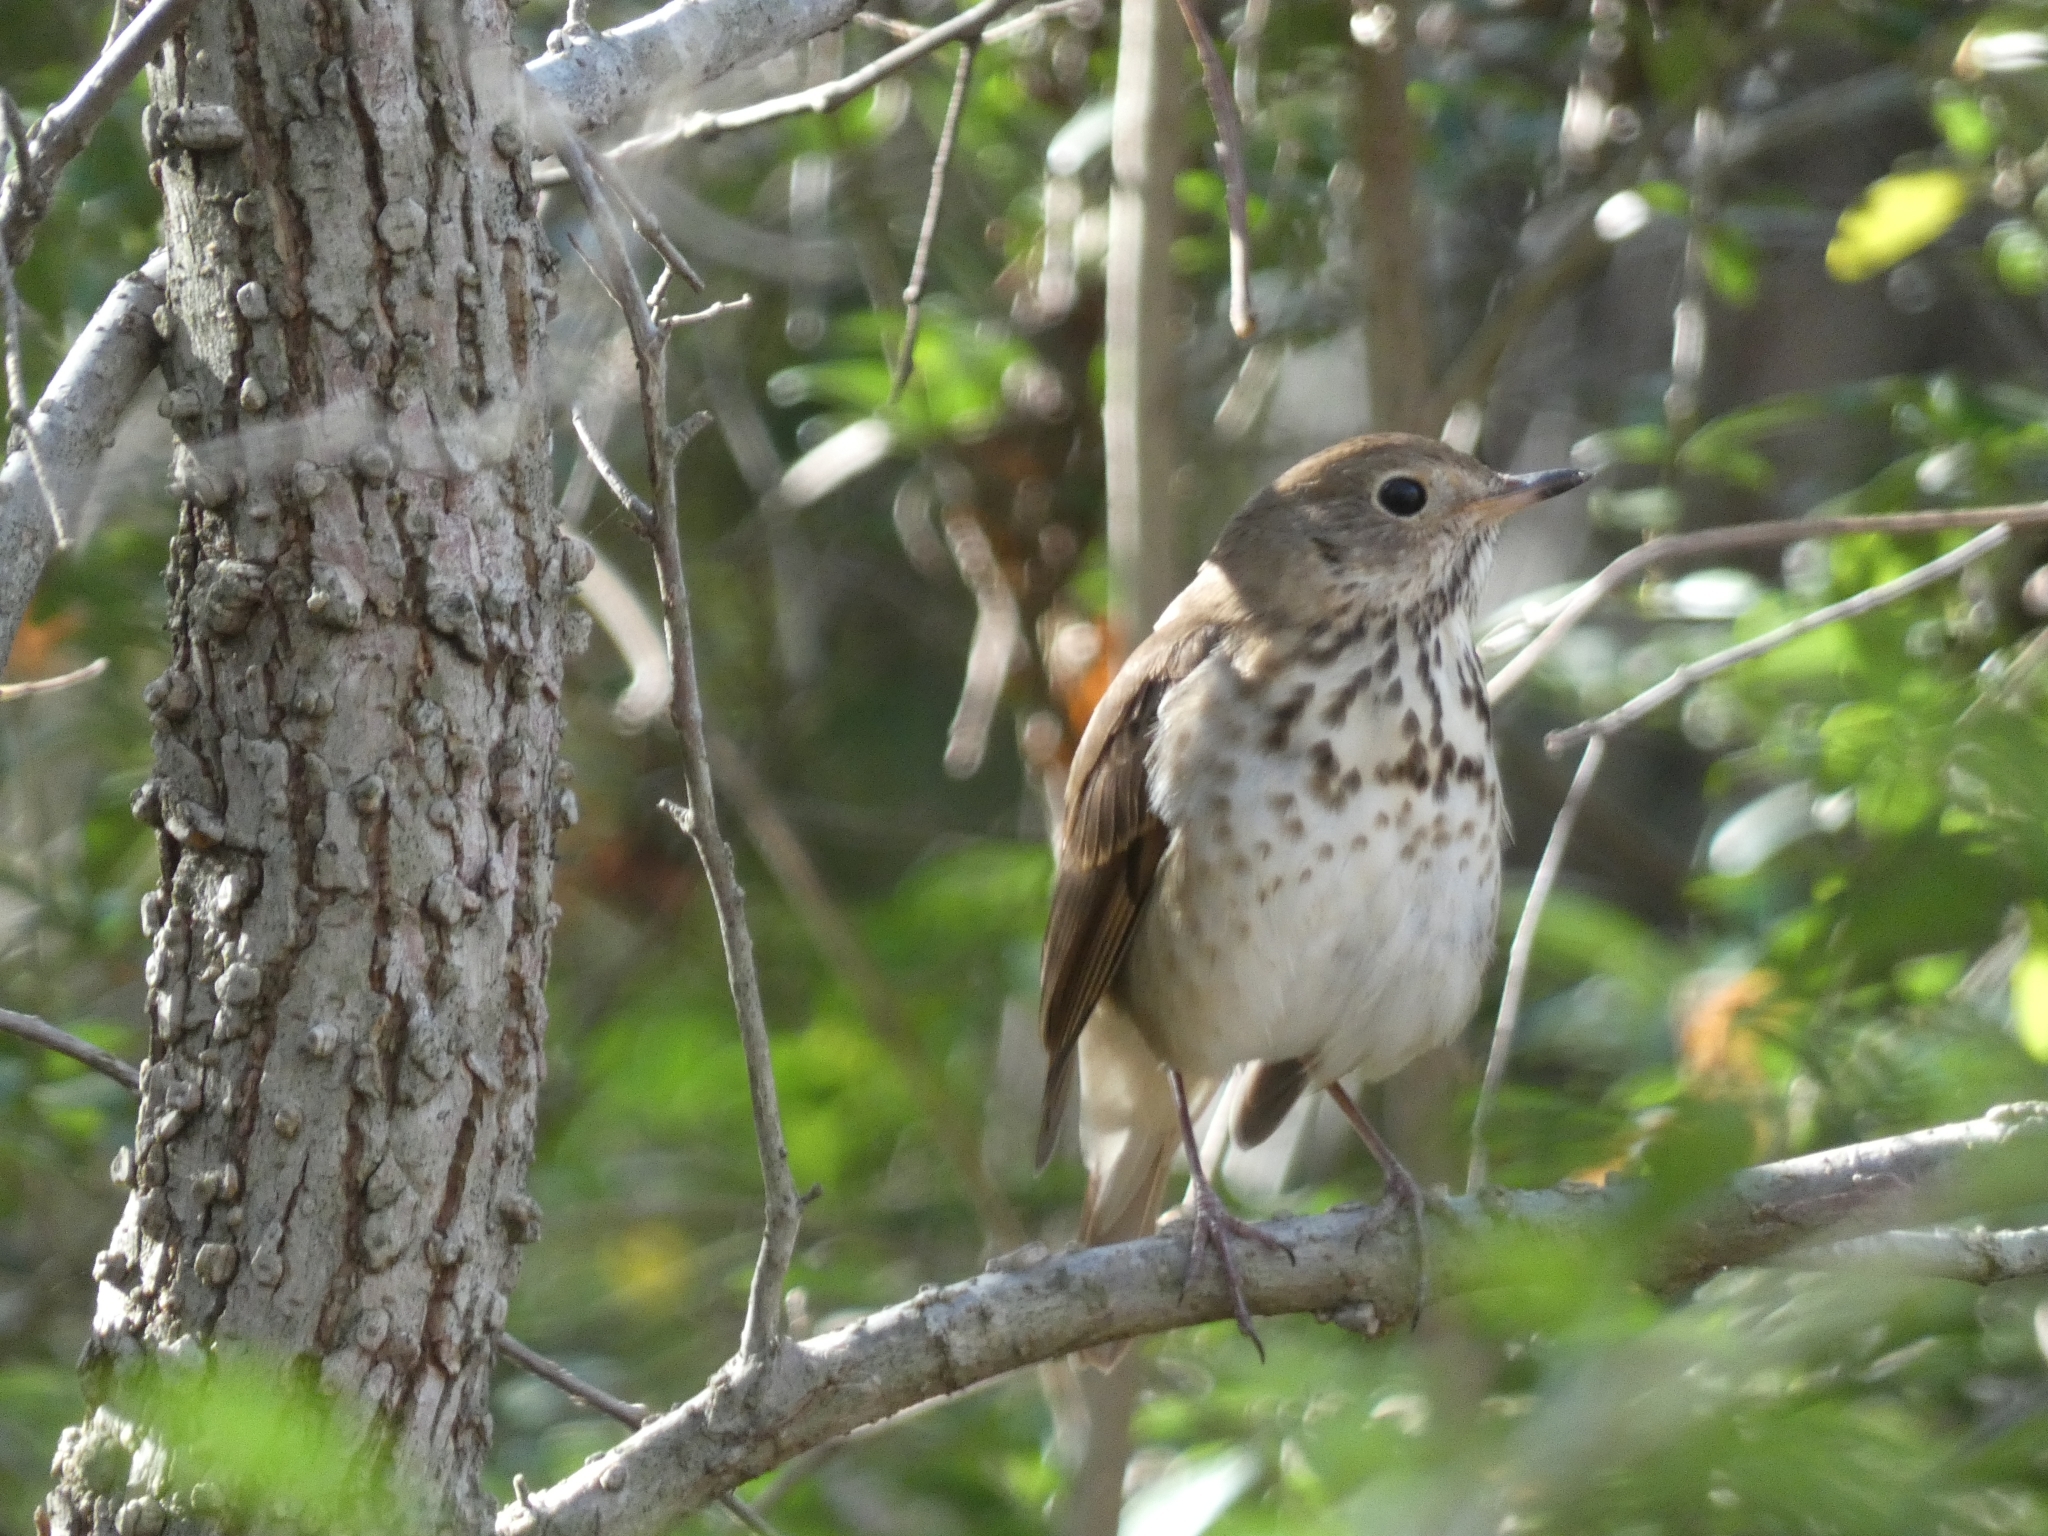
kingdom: Animalia
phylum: Chordata
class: Aves
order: Passeriformes
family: Turdidae
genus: Catharus
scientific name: Catharus guttatus
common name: Hermit thrush
